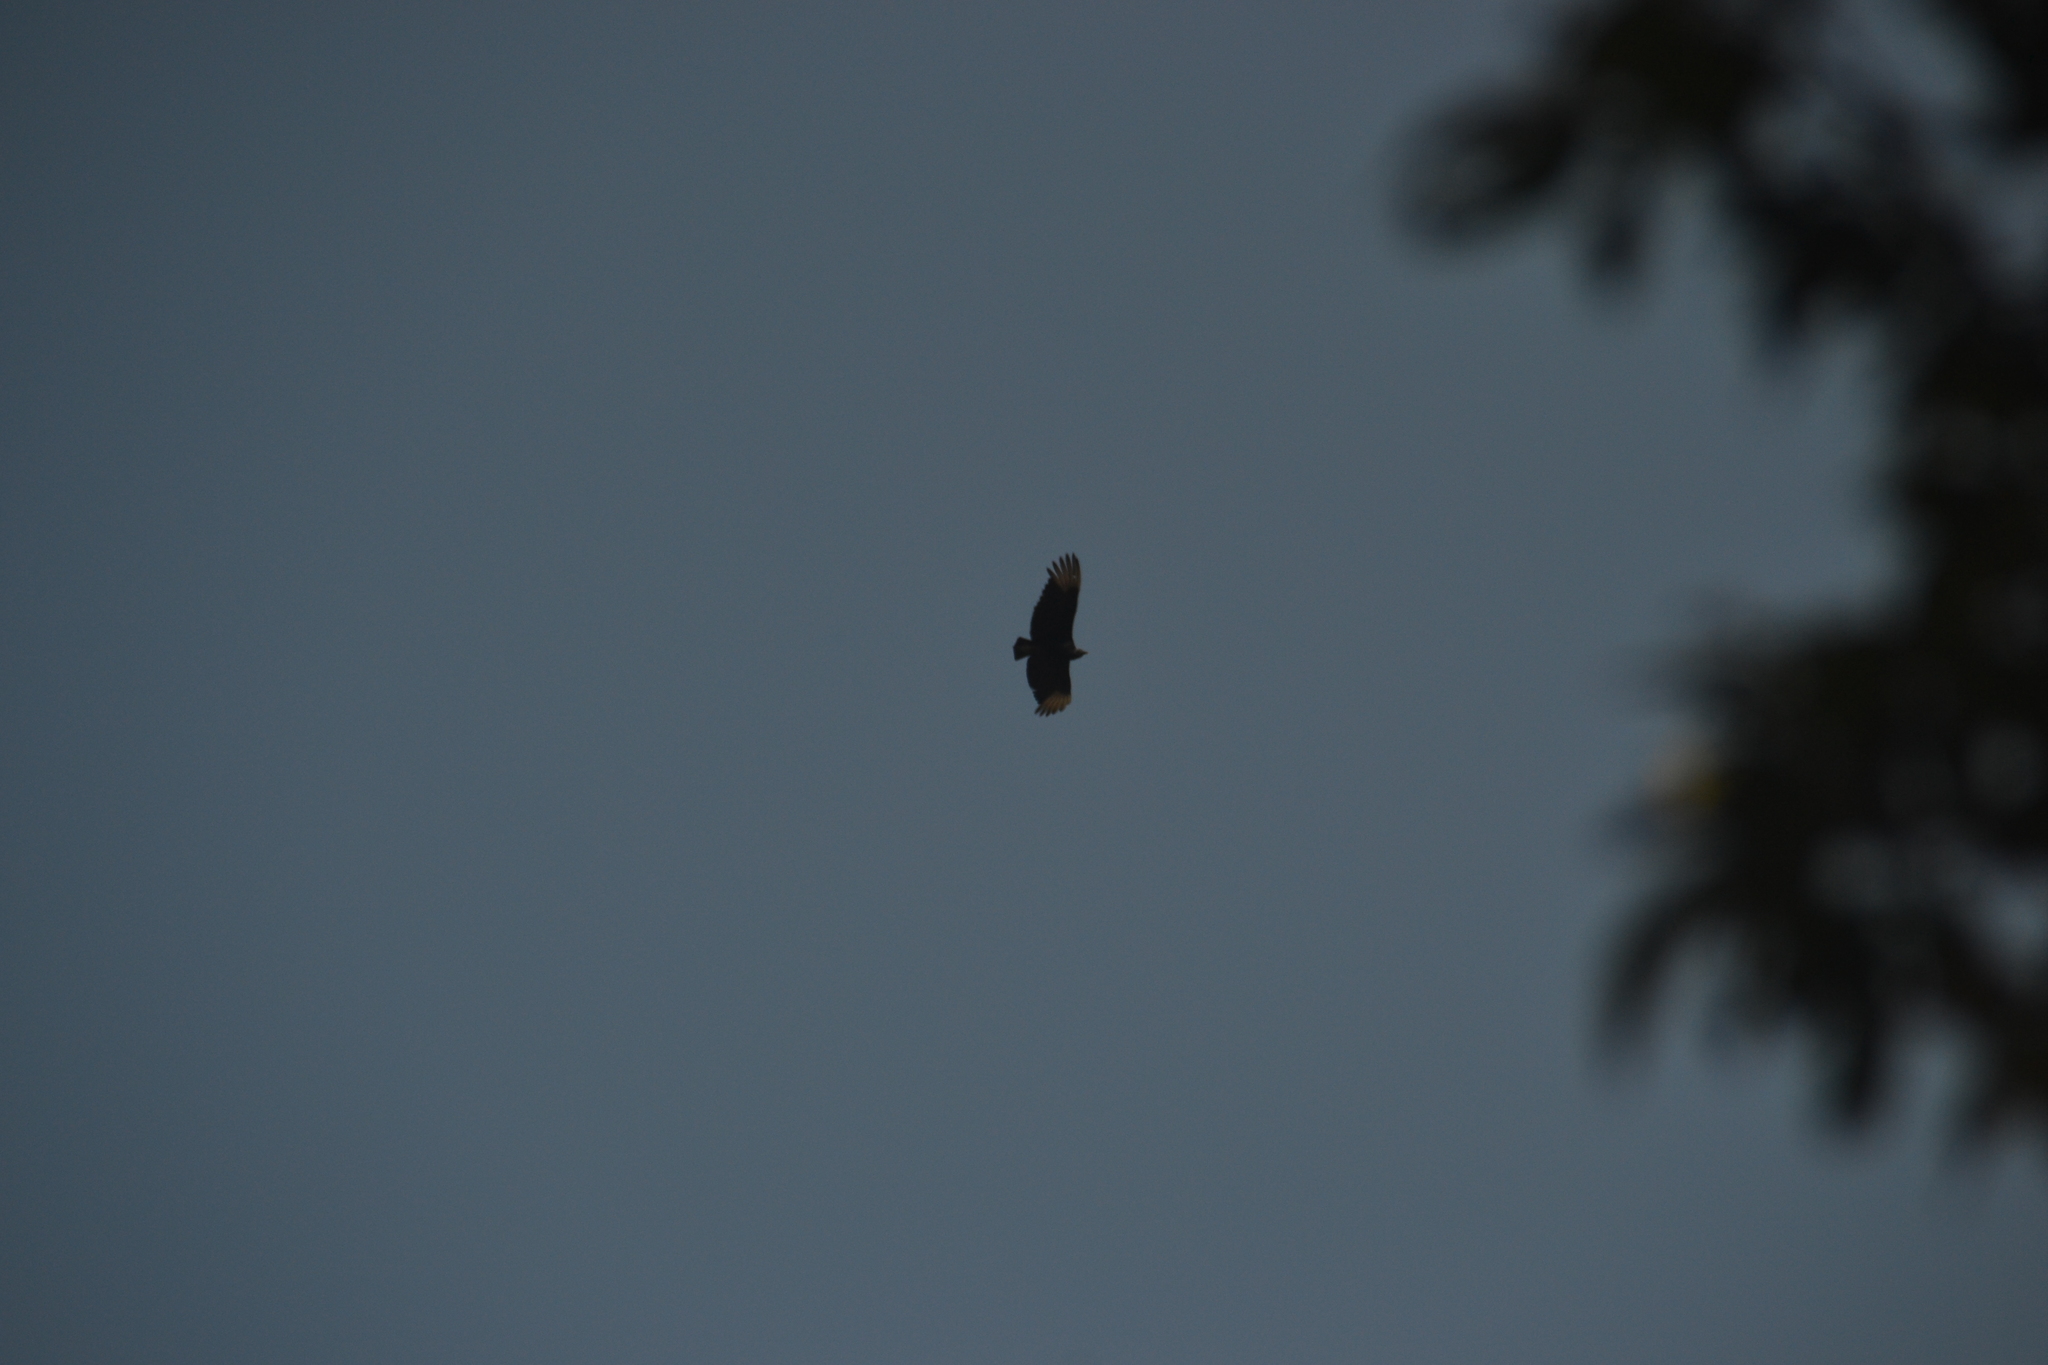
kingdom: Animalia
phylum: Chordata
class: Aves
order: Accipitriformes
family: Cathartidae
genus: Coragyps
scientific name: Coragyps atratus
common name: Black vulture
